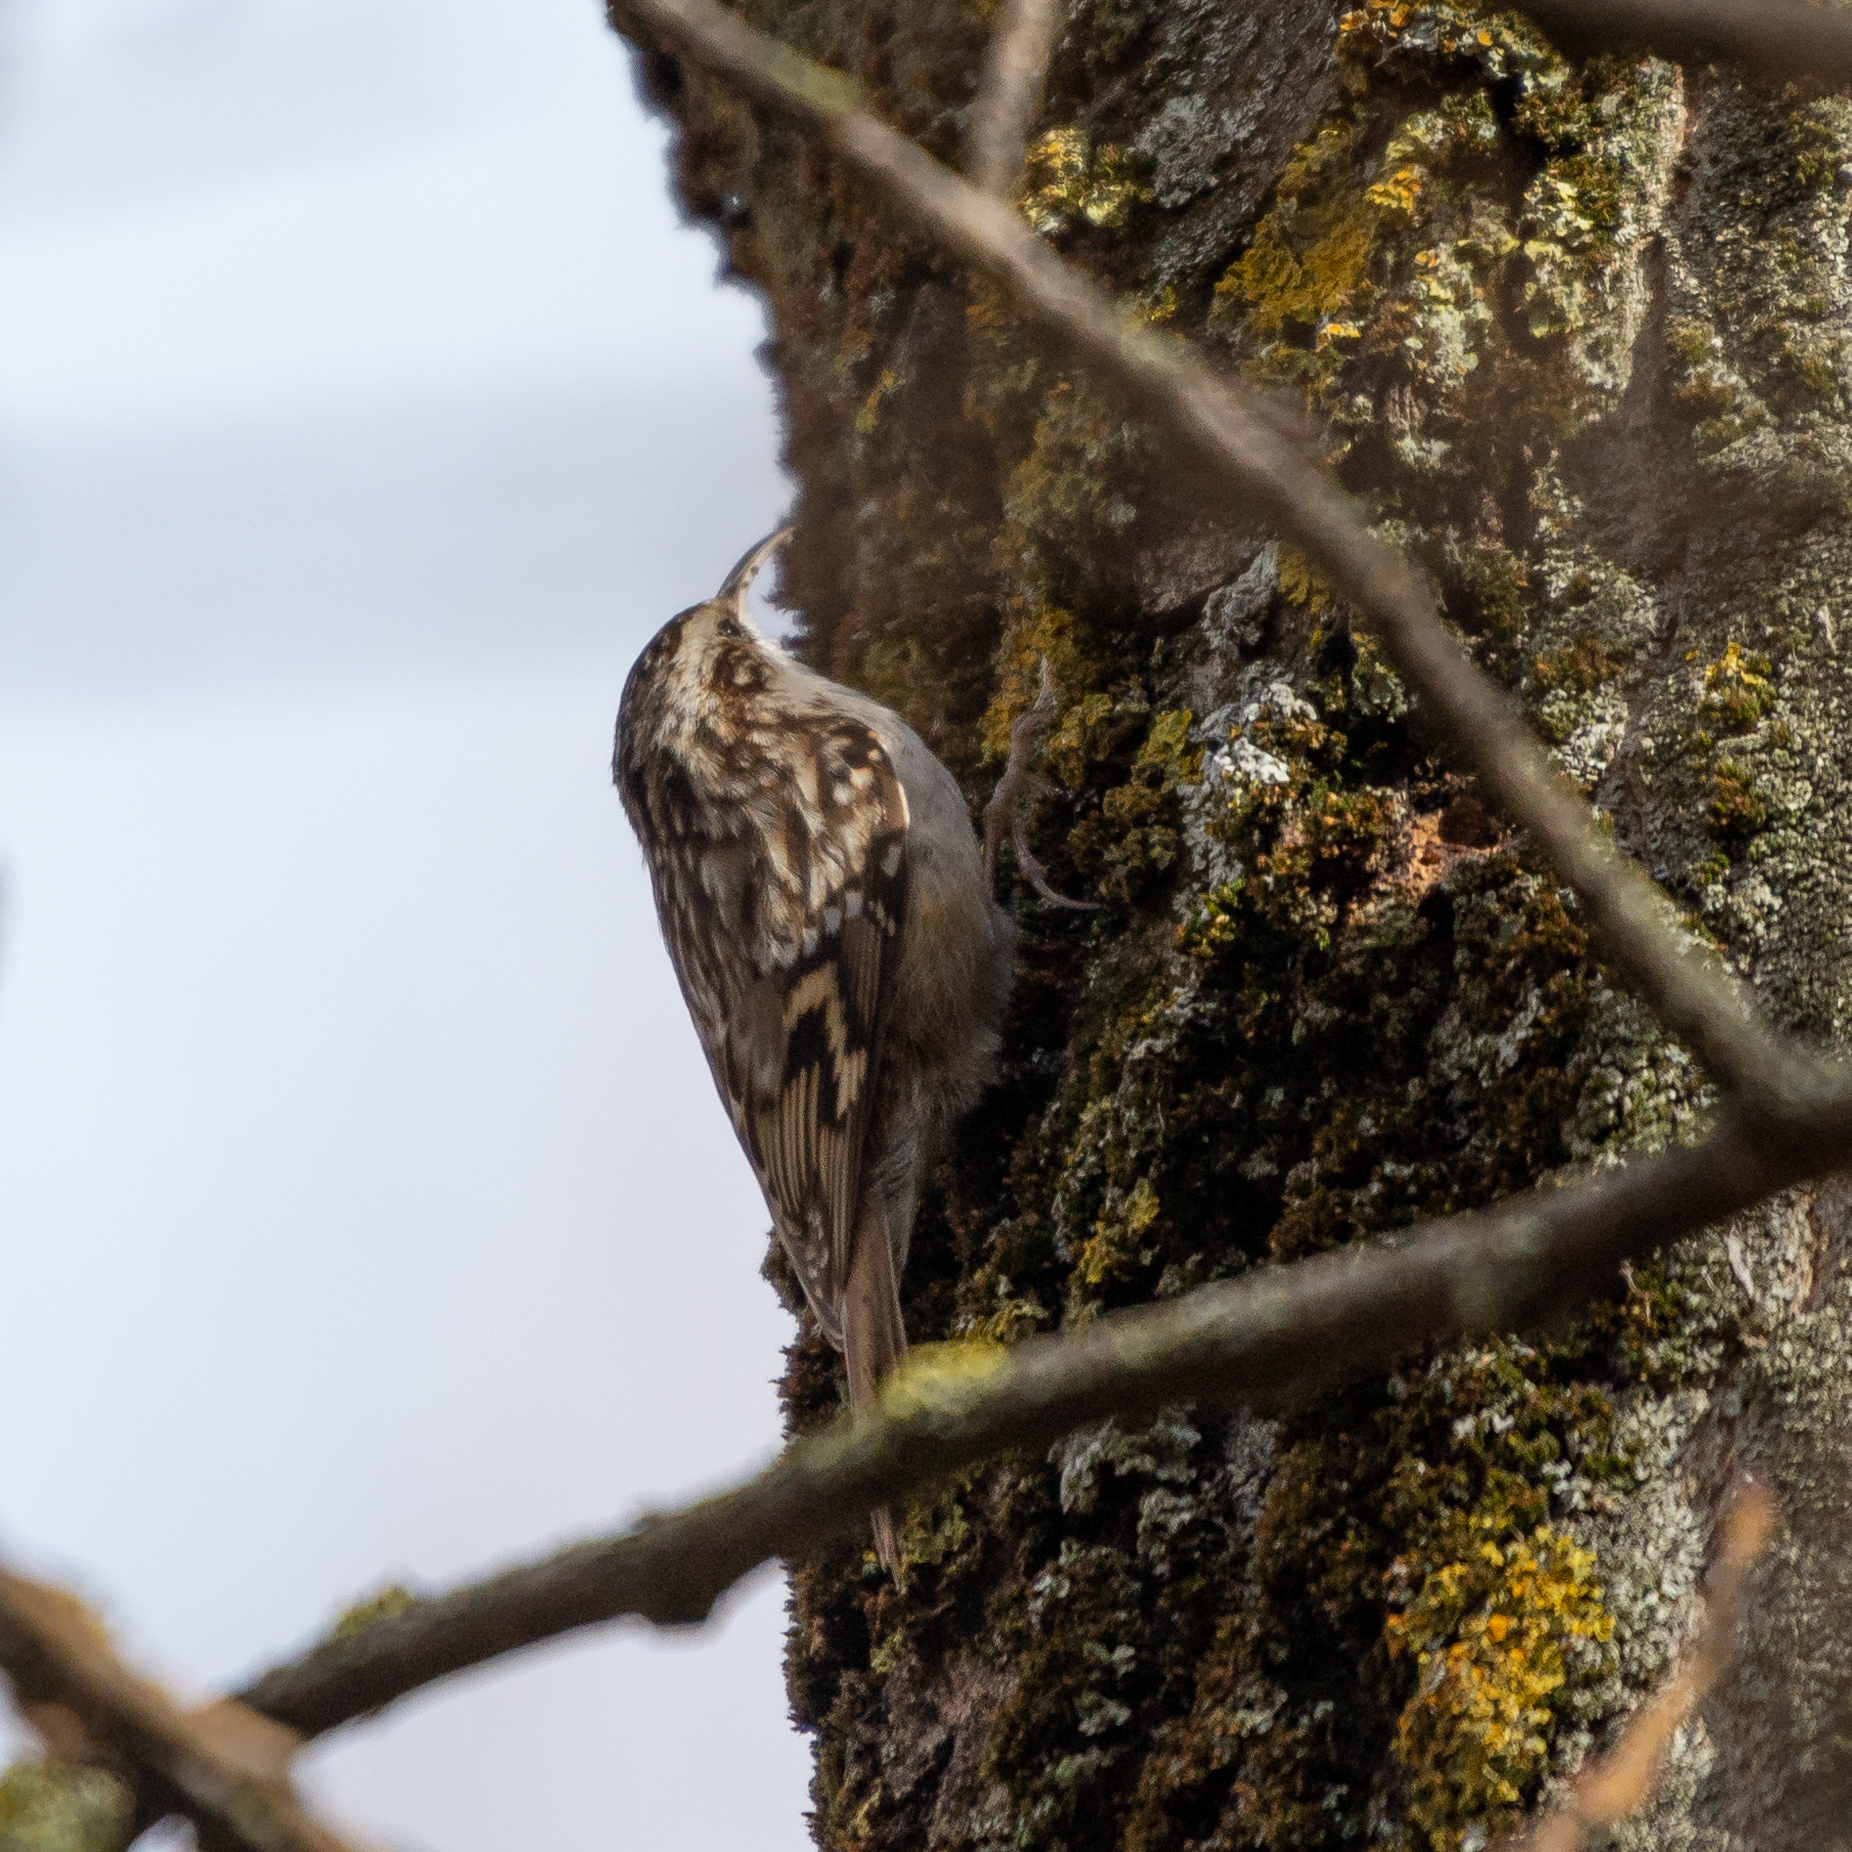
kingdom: Animalia
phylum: Chordata
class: Aves
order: Passeriformes
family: Certhiidae
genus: Certhia
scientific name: Certhia brachydactyla
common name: Short-toed treecreeper
